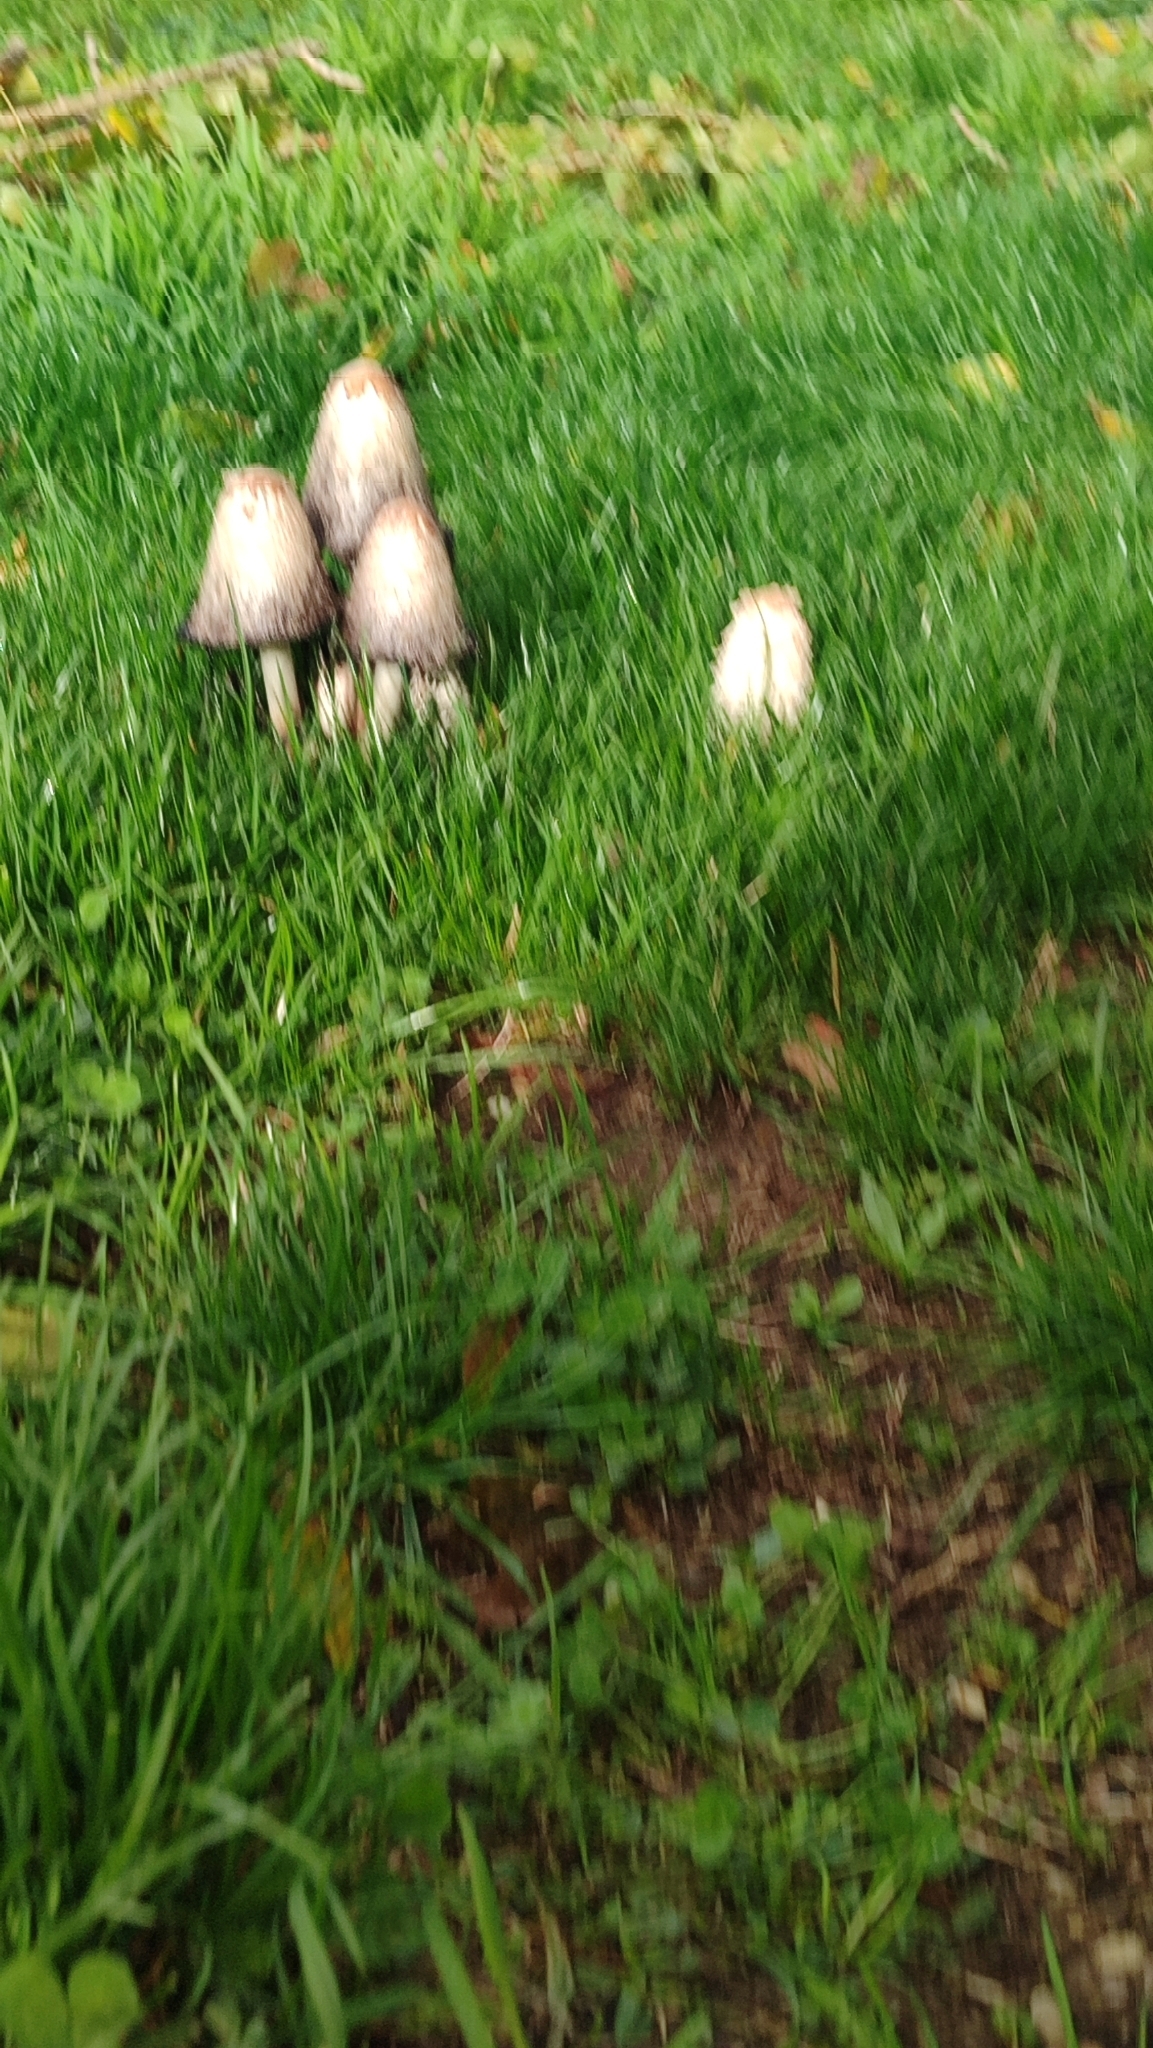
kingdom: Fungi
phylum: Basidiomycota
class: Agaricomycetes
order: Agaricales
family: Agaricaceae
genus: Coprinus
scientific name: Coprinus comatus
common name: Lawyer's wig
